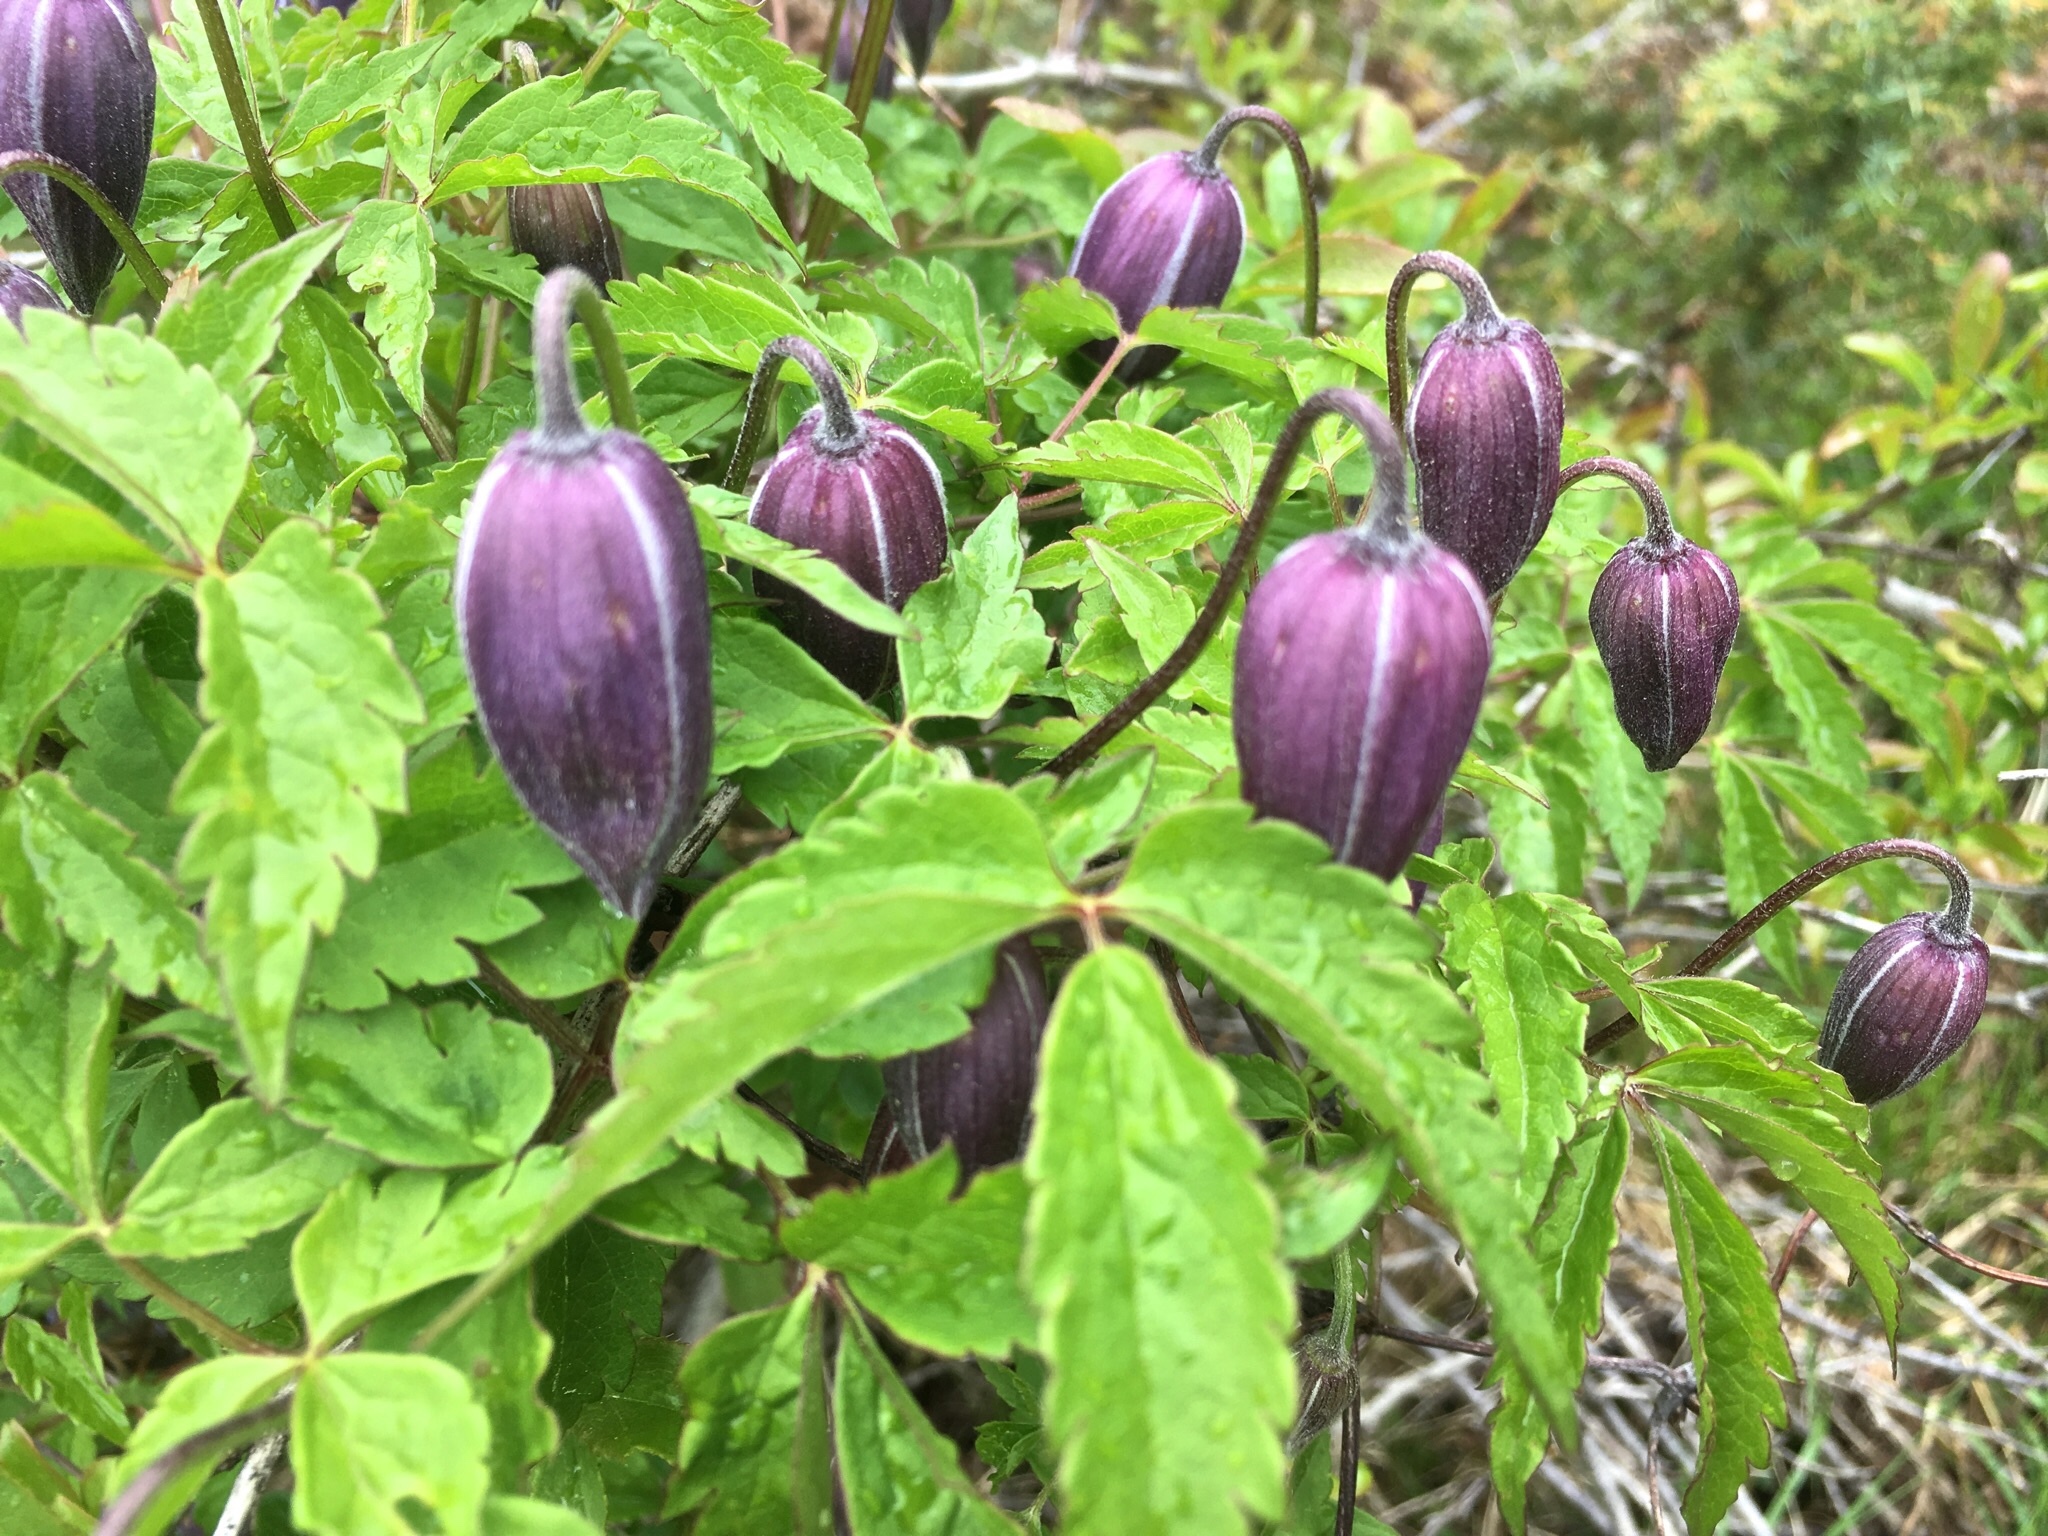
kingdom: Plantae
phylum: Tracheophyta
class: Magnoliopsida
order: Ranunculales
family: Ranunculaceae
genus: Clematis
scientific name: Clematis alpina
